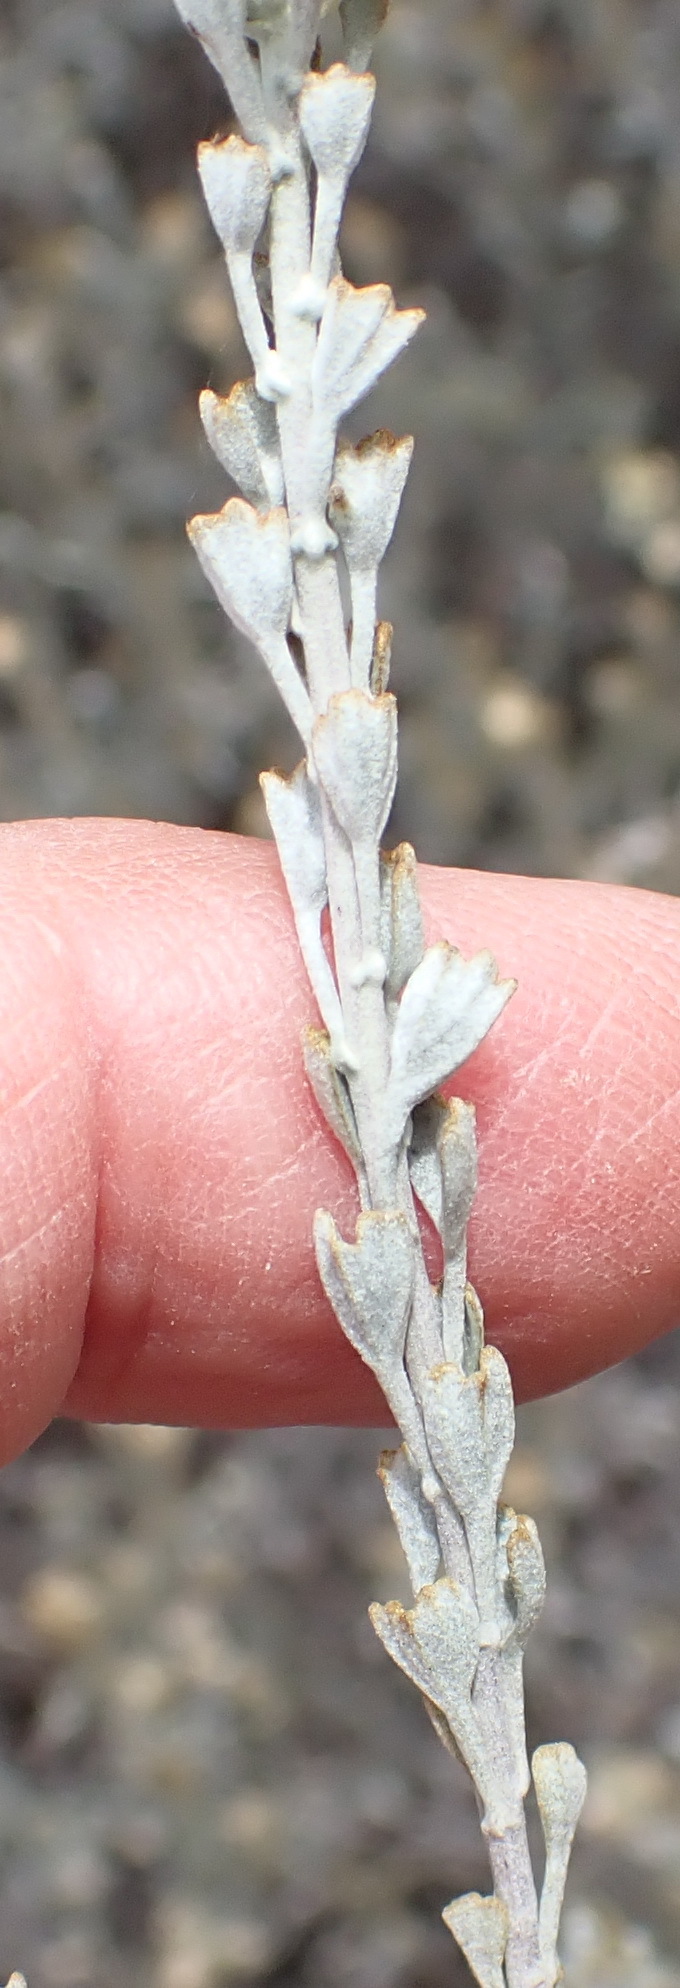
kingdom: Plantae
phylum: Tracheophyta
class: Magnoliopsida
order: Asterales
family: Asteraceae
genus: Helichrysum
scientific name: Helichrysum excisum
